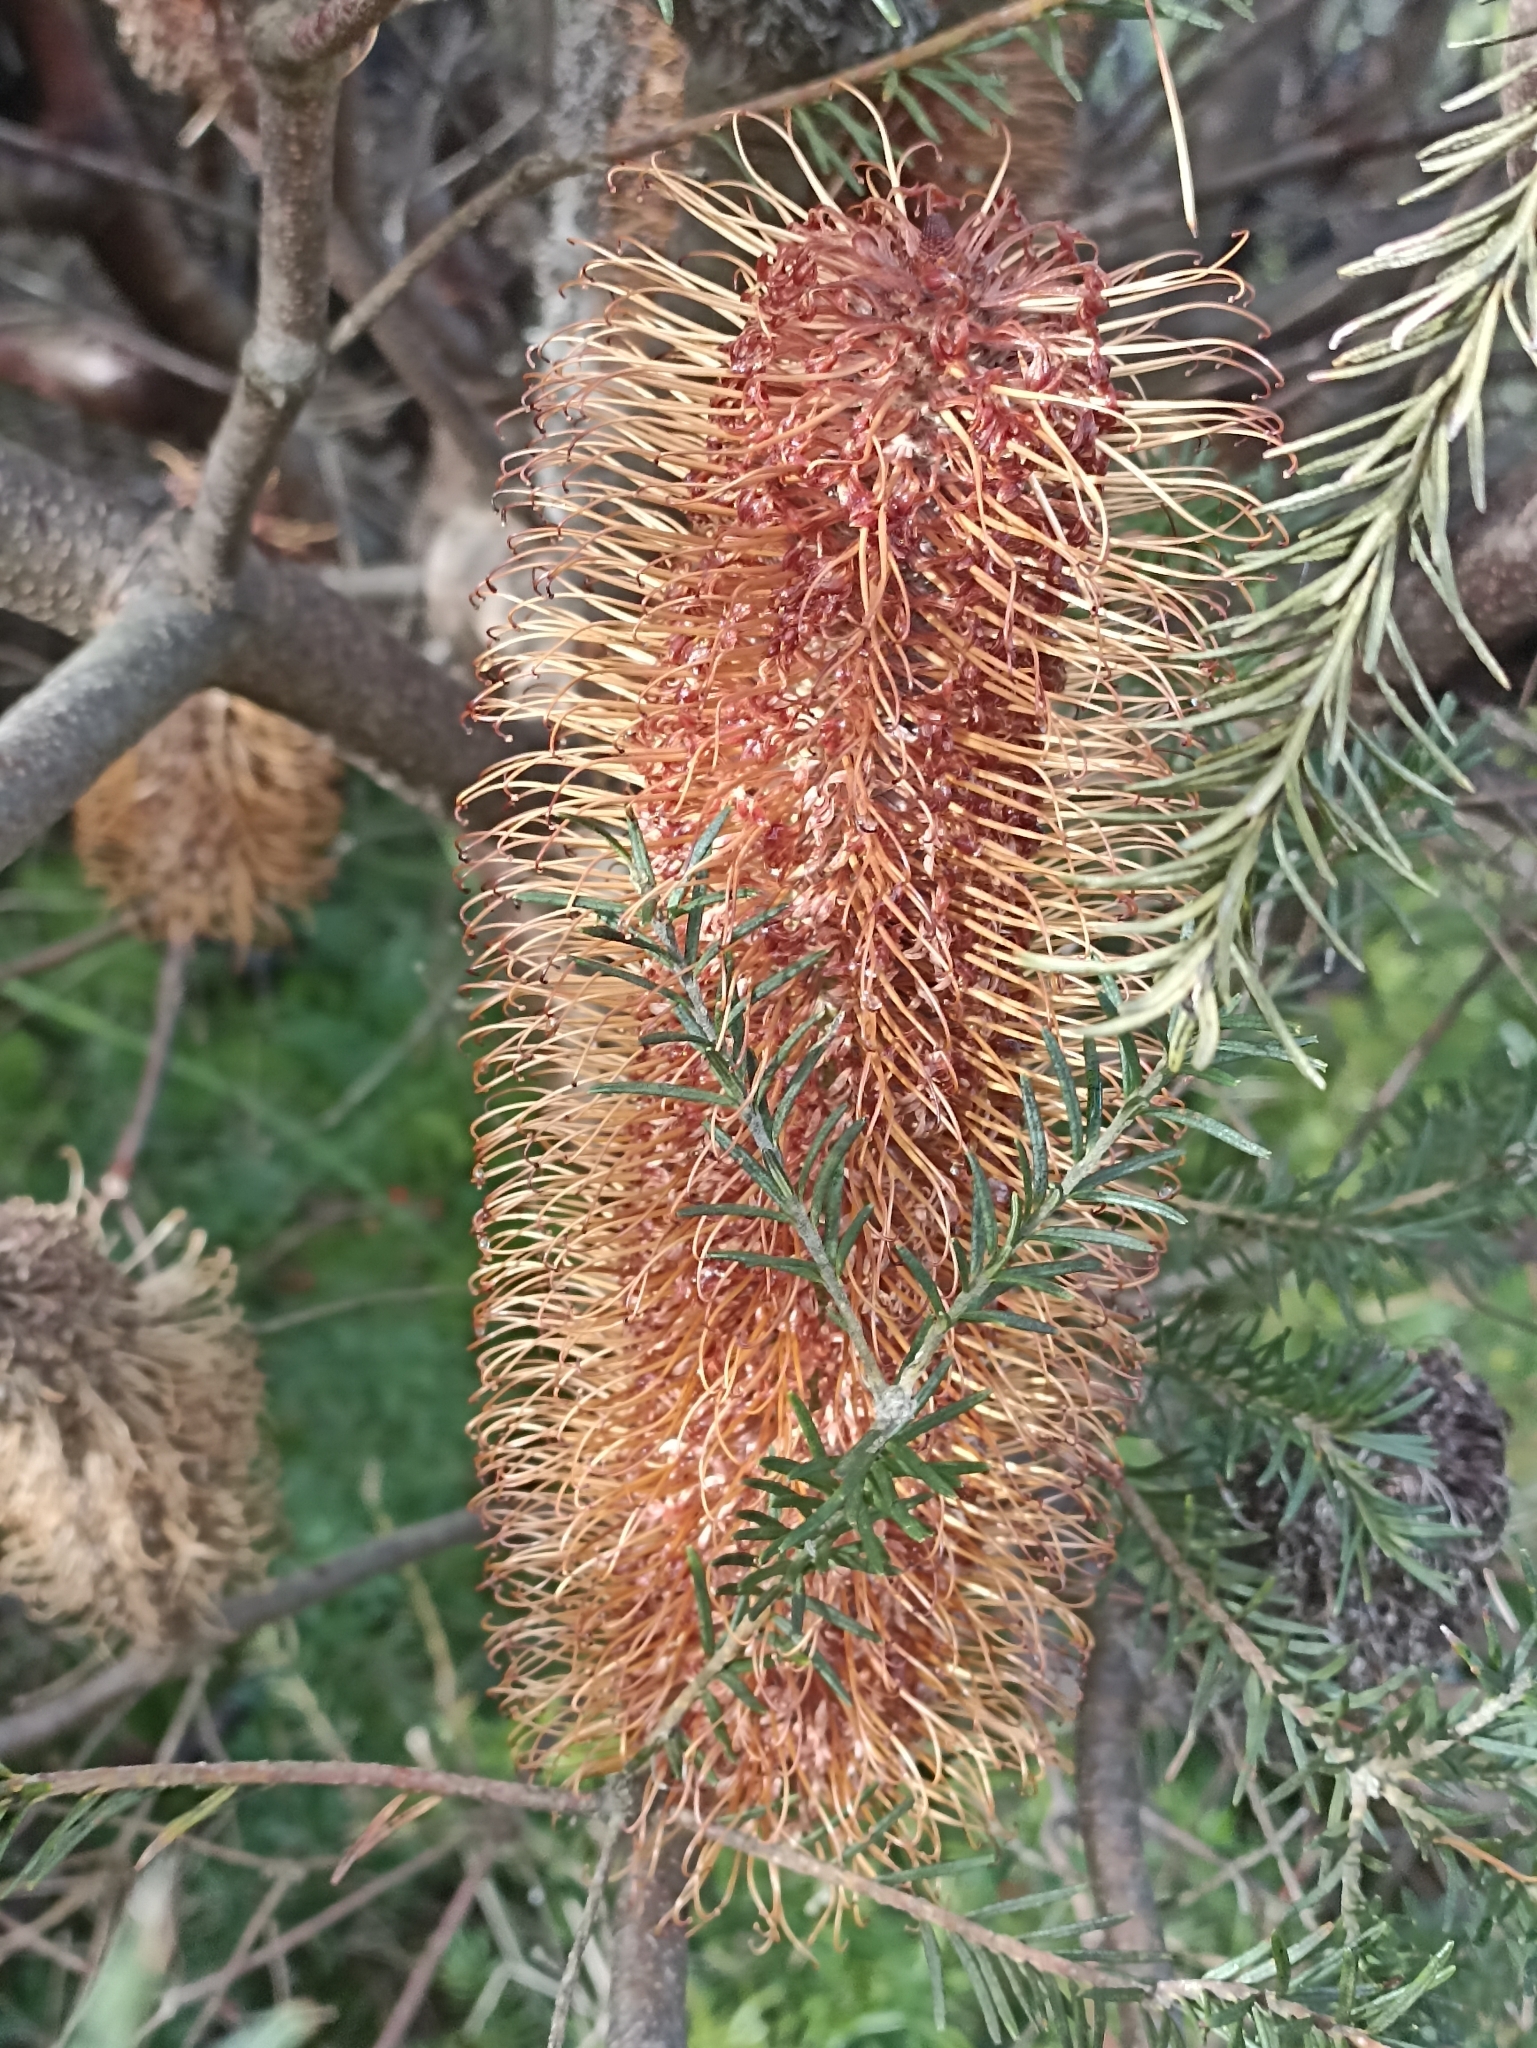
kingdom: Plantae
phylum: Tracheophyta
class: Magnoliopsida
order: Proteales
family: Proteaceae
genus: Banksia
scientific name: Banksia ericifolia
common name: Heath-leaf banksia
